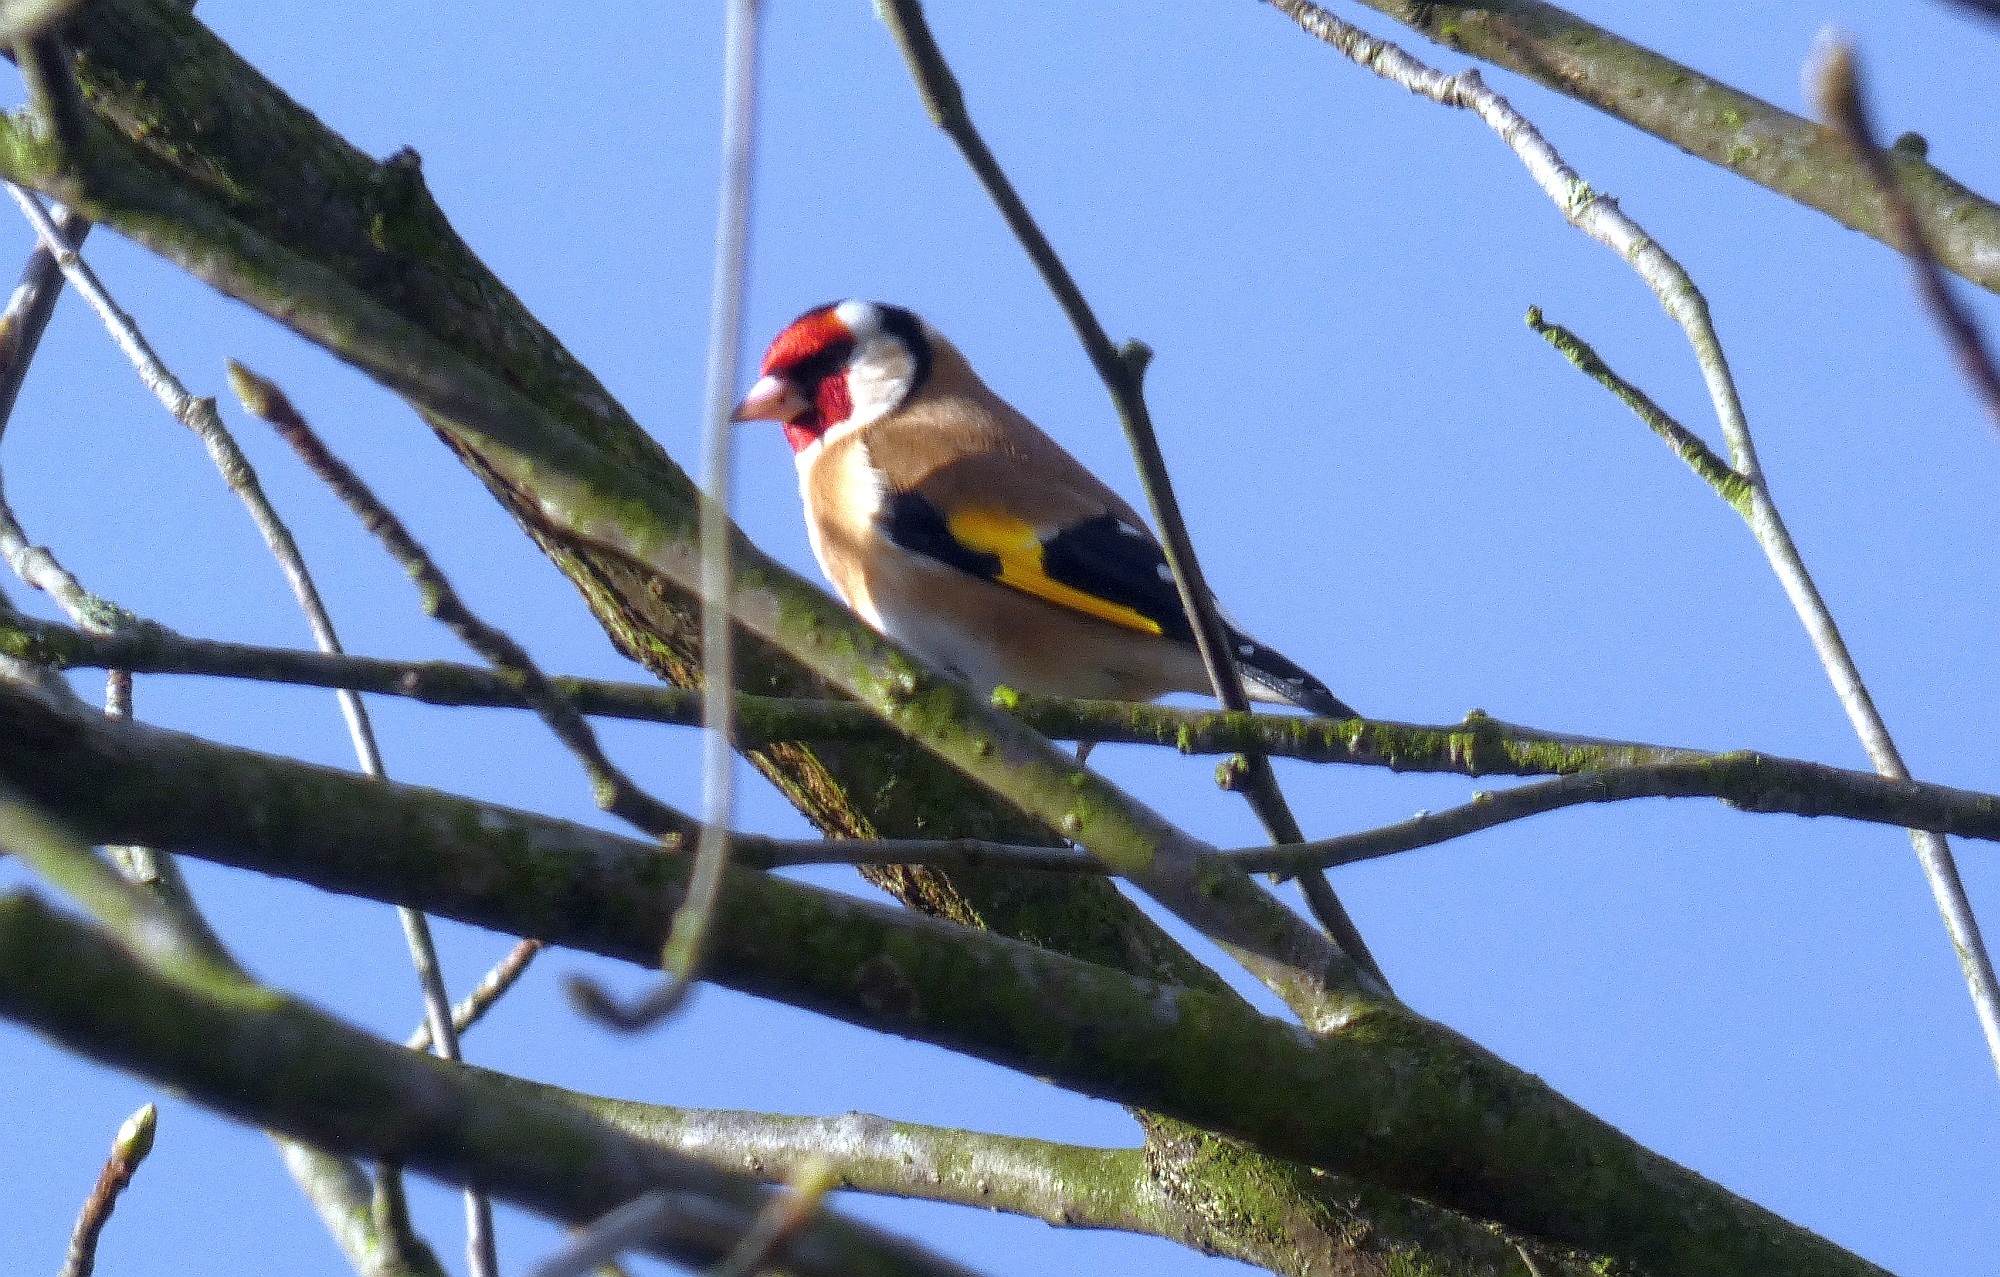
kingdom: Animalia
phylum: Chordata
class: Aves
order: Passeriformes
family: Fringillidae
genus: Carduelis
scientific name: Carduelis carduelis
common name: European goldfinch
